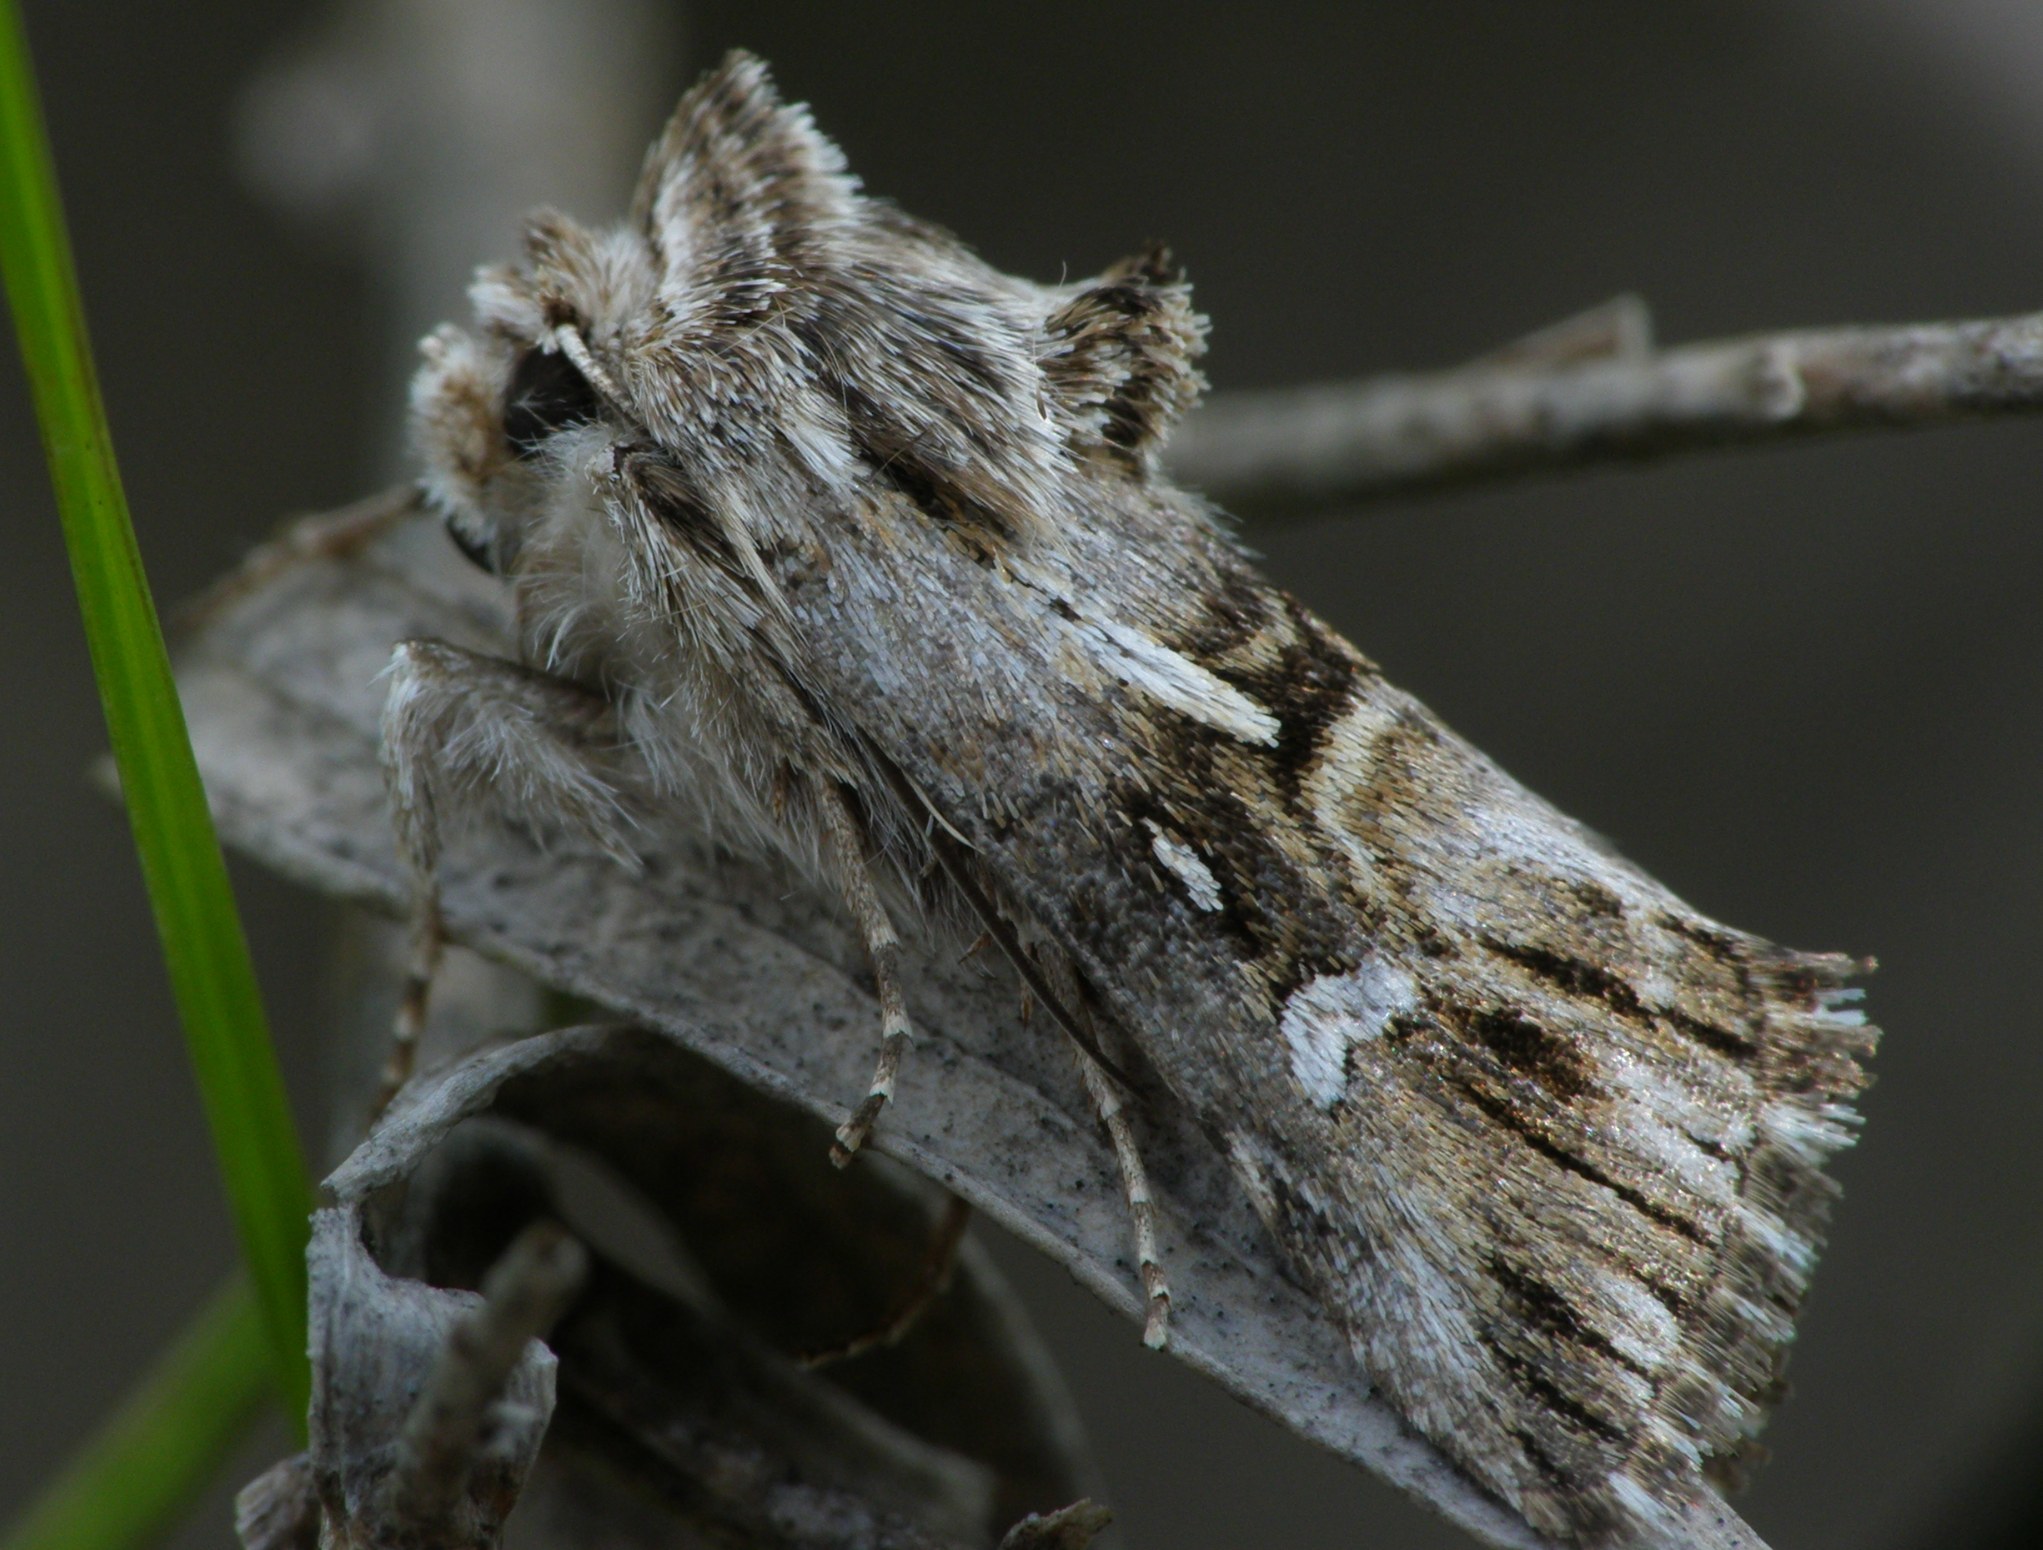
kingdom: Animalia
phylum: Arthropoda
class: Insecta
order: Lepidoptera
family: Noctuidae
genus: Calophasia
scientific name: Calophasia lunula
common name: Toadflax brocade
